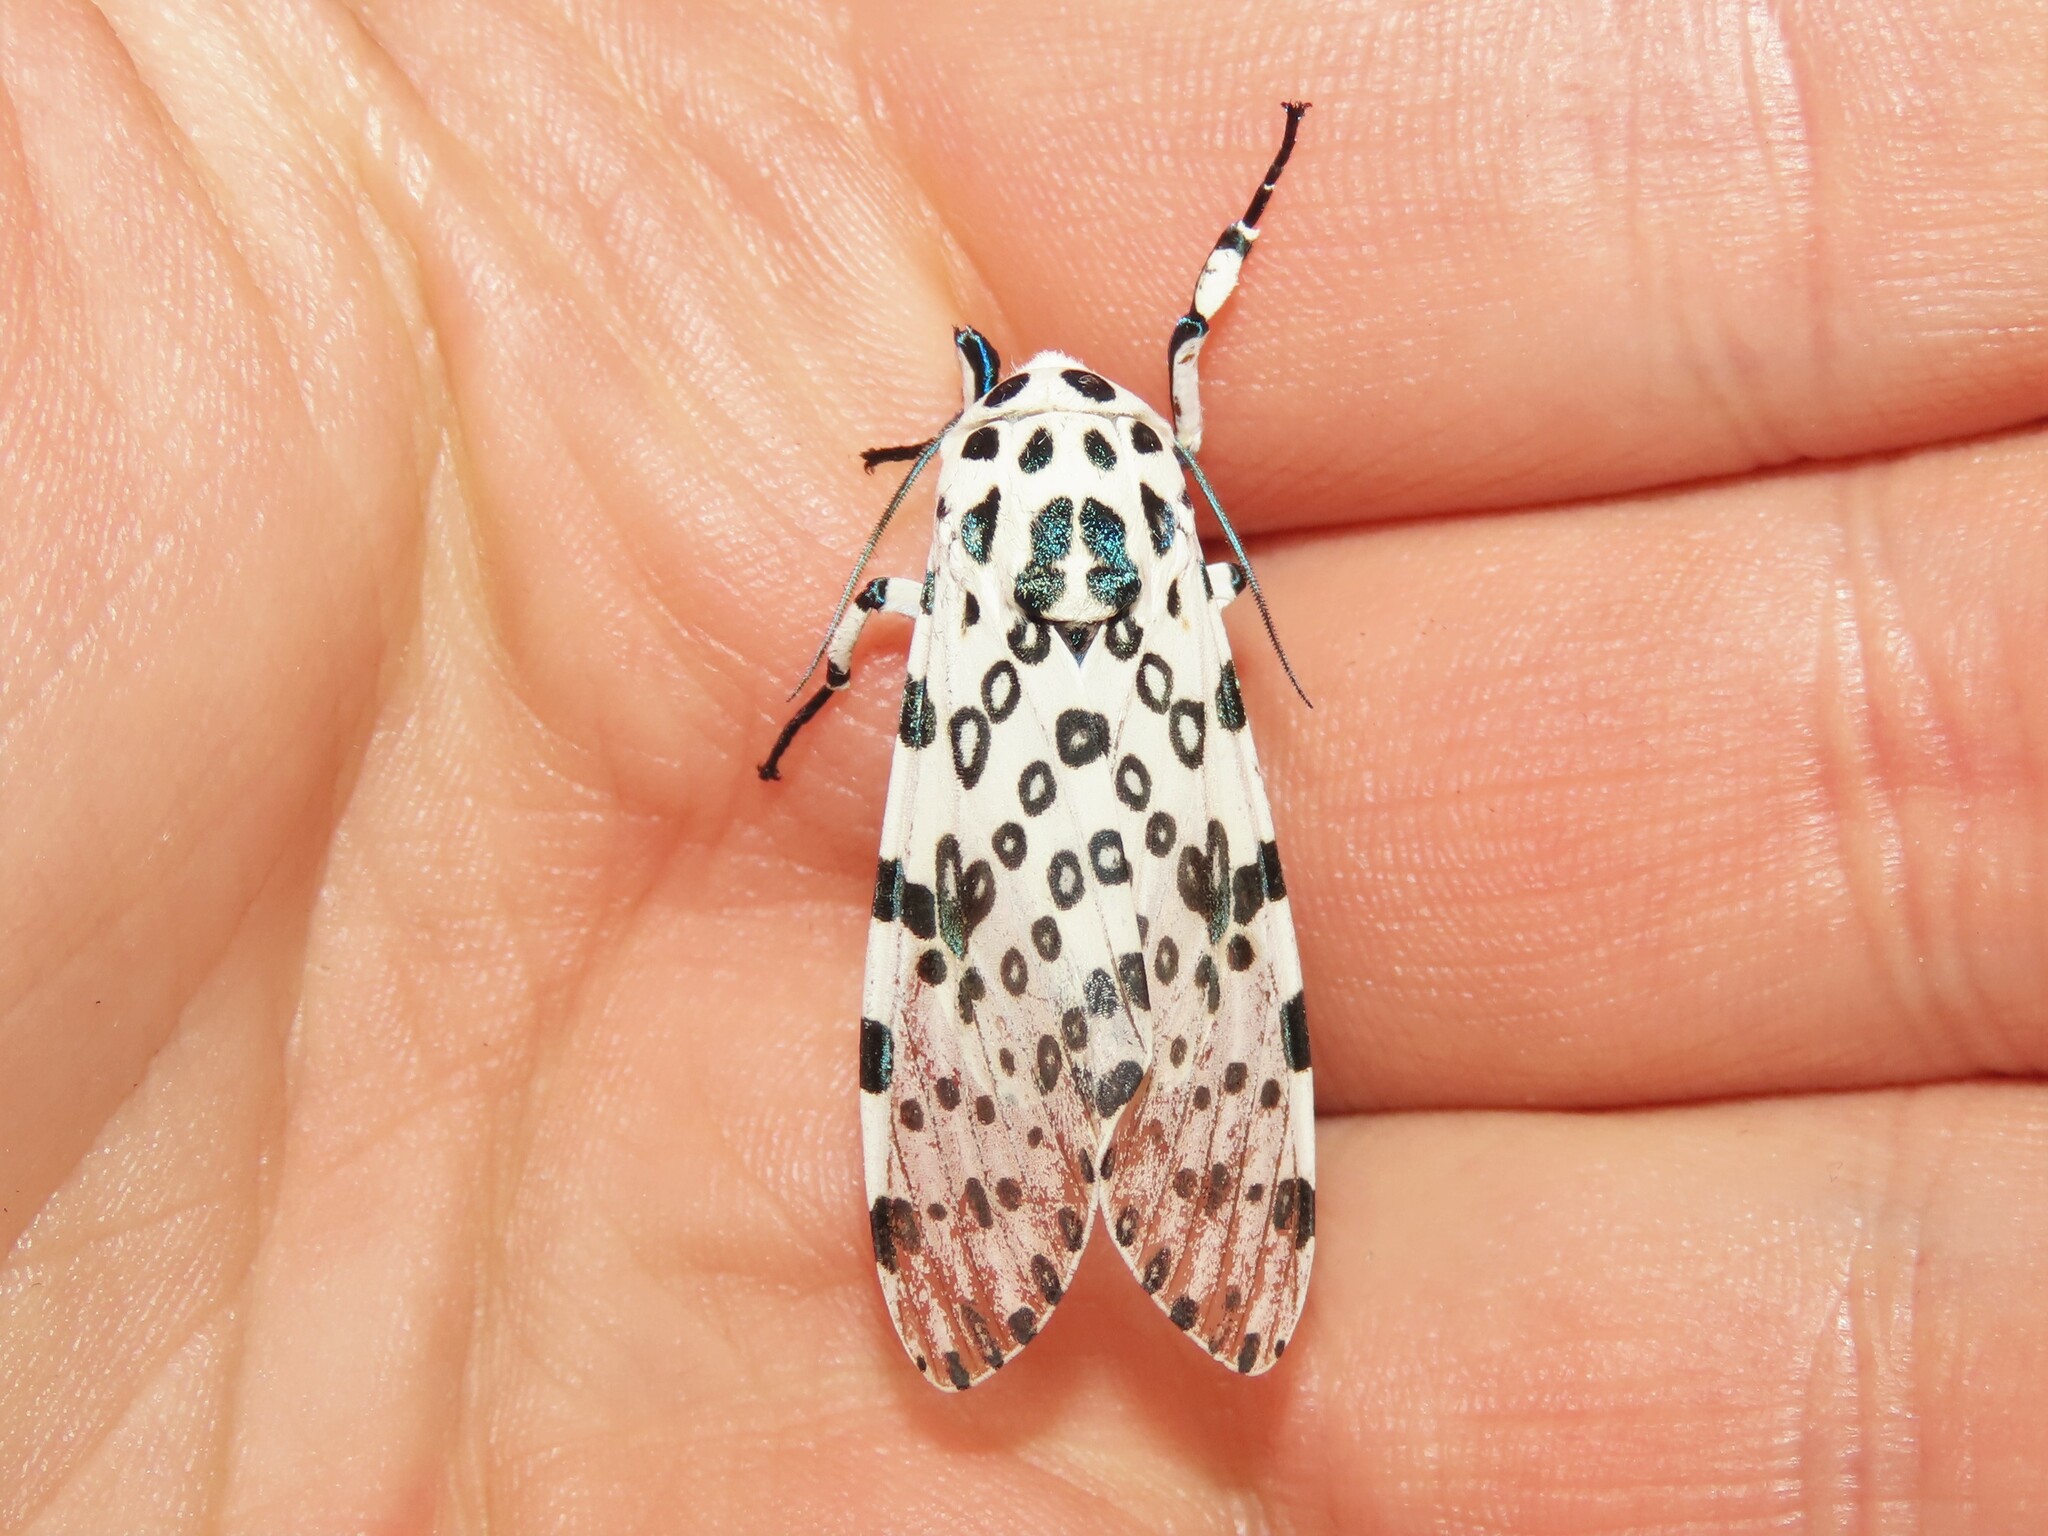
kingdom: Animalia
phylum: Arthropoda
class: Insecta
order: Lepidoptera
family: Erebidae
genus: Hypercompe
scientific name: Hypercompe scribonia
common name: Giant leopard moth
